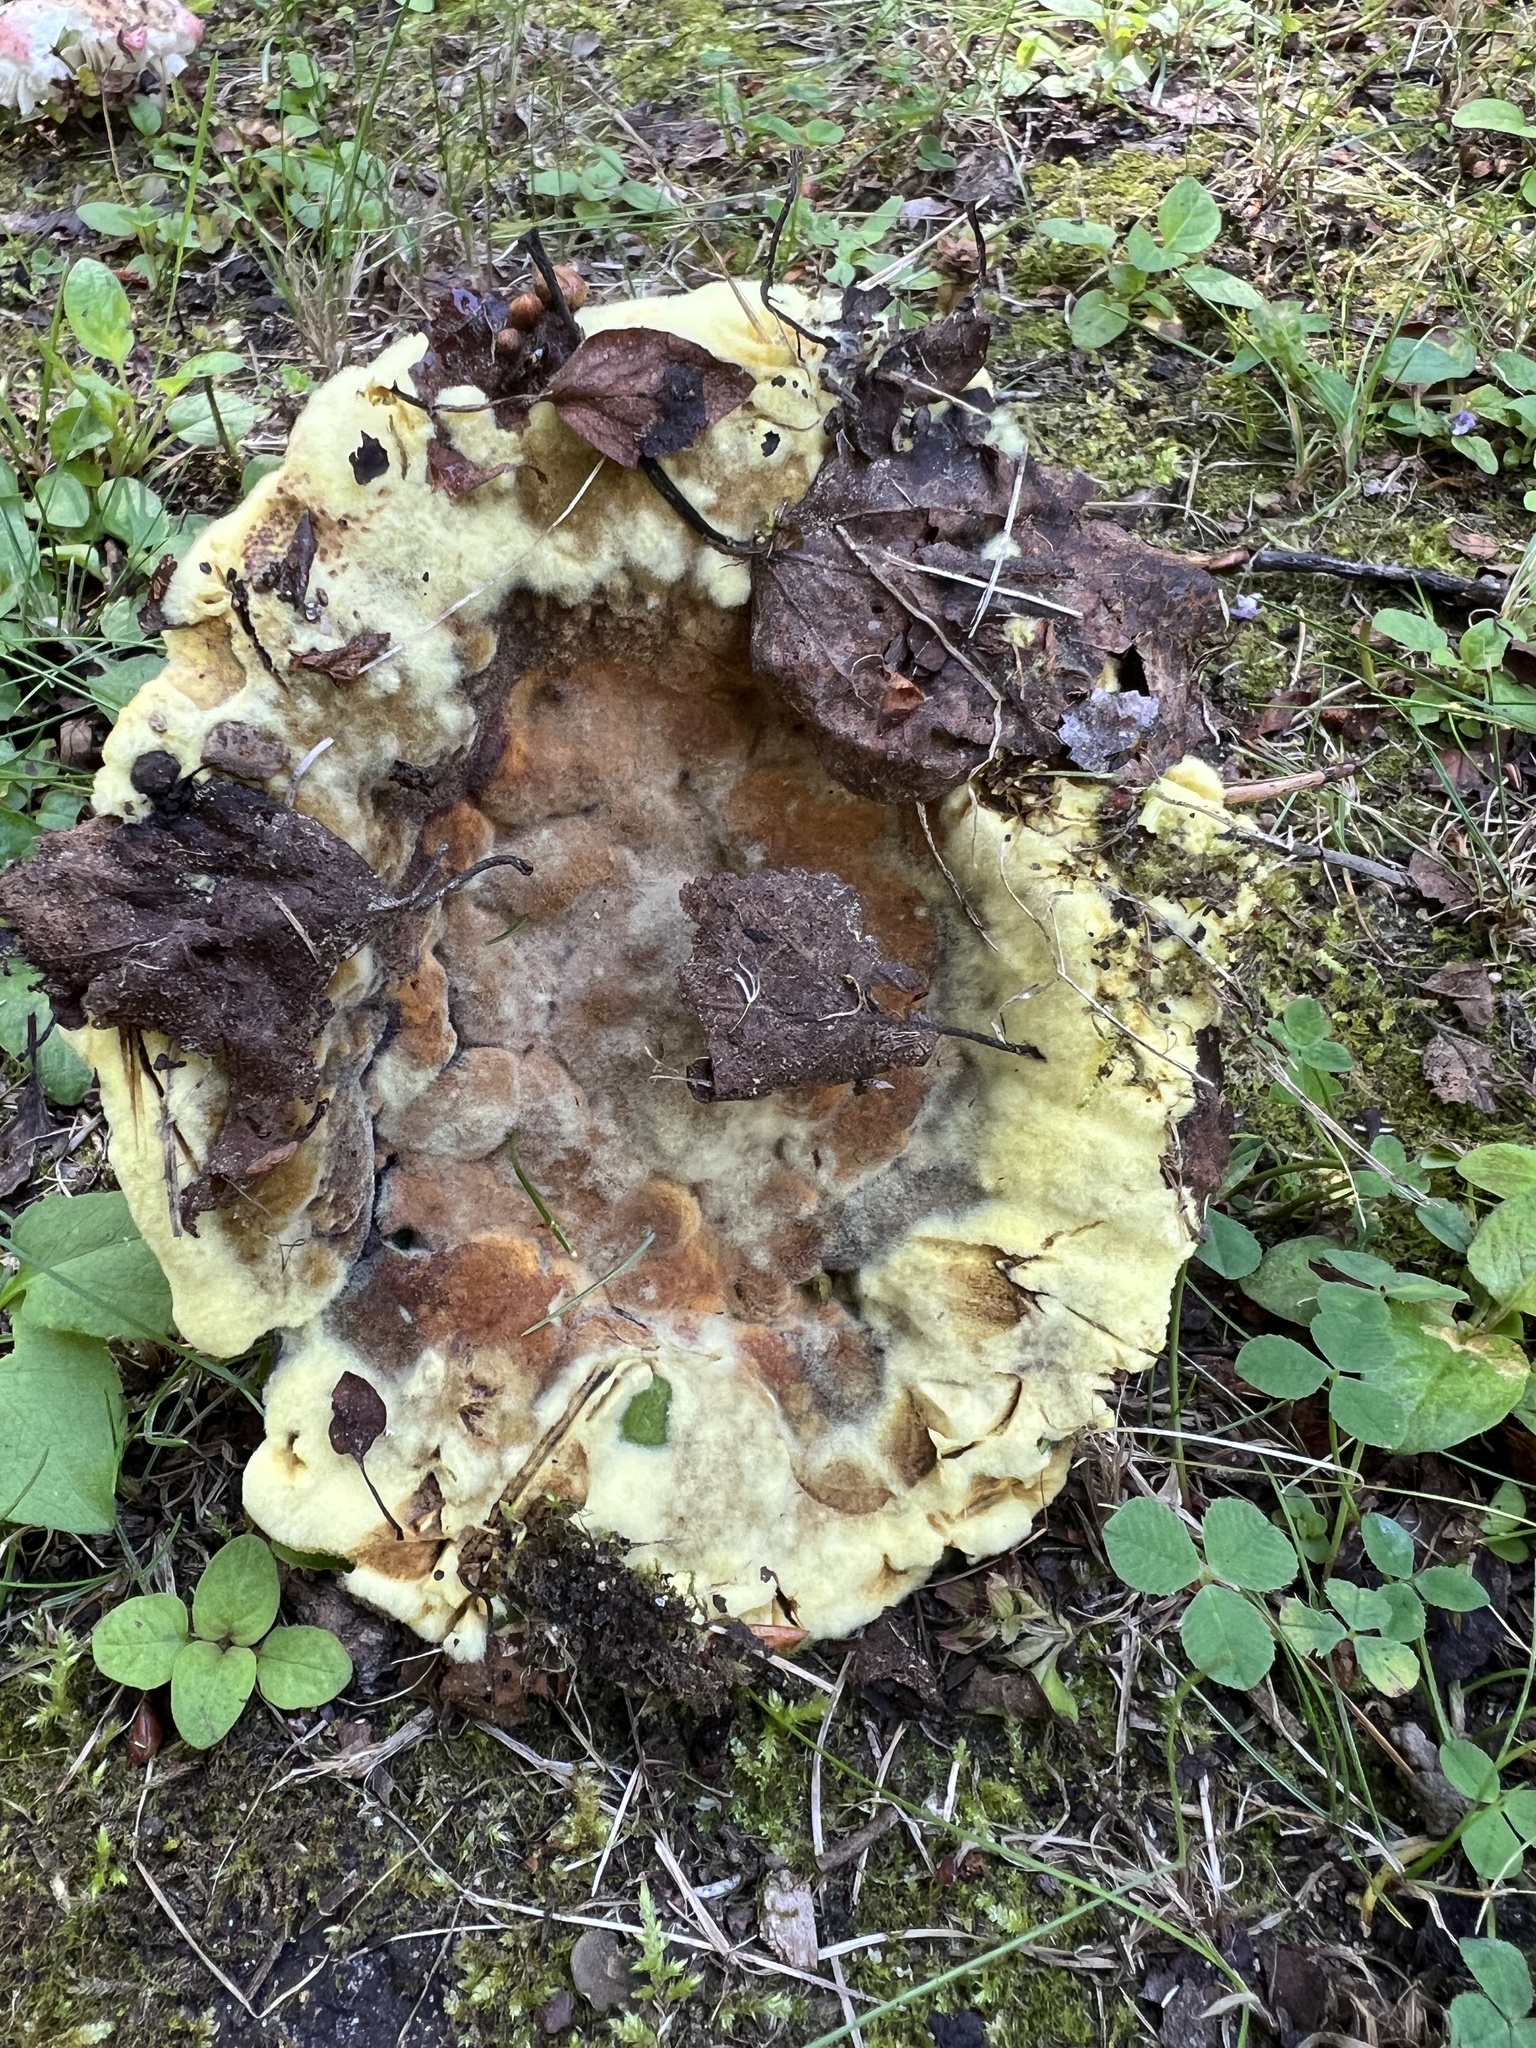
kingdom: Fungi
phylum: Basidiomycota
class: Agaricomycetes
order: Polyporales
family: Laetiporaceae
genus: Phaeolus
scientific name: Phaeolus schweinitzii
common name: Dyer's mazegill
